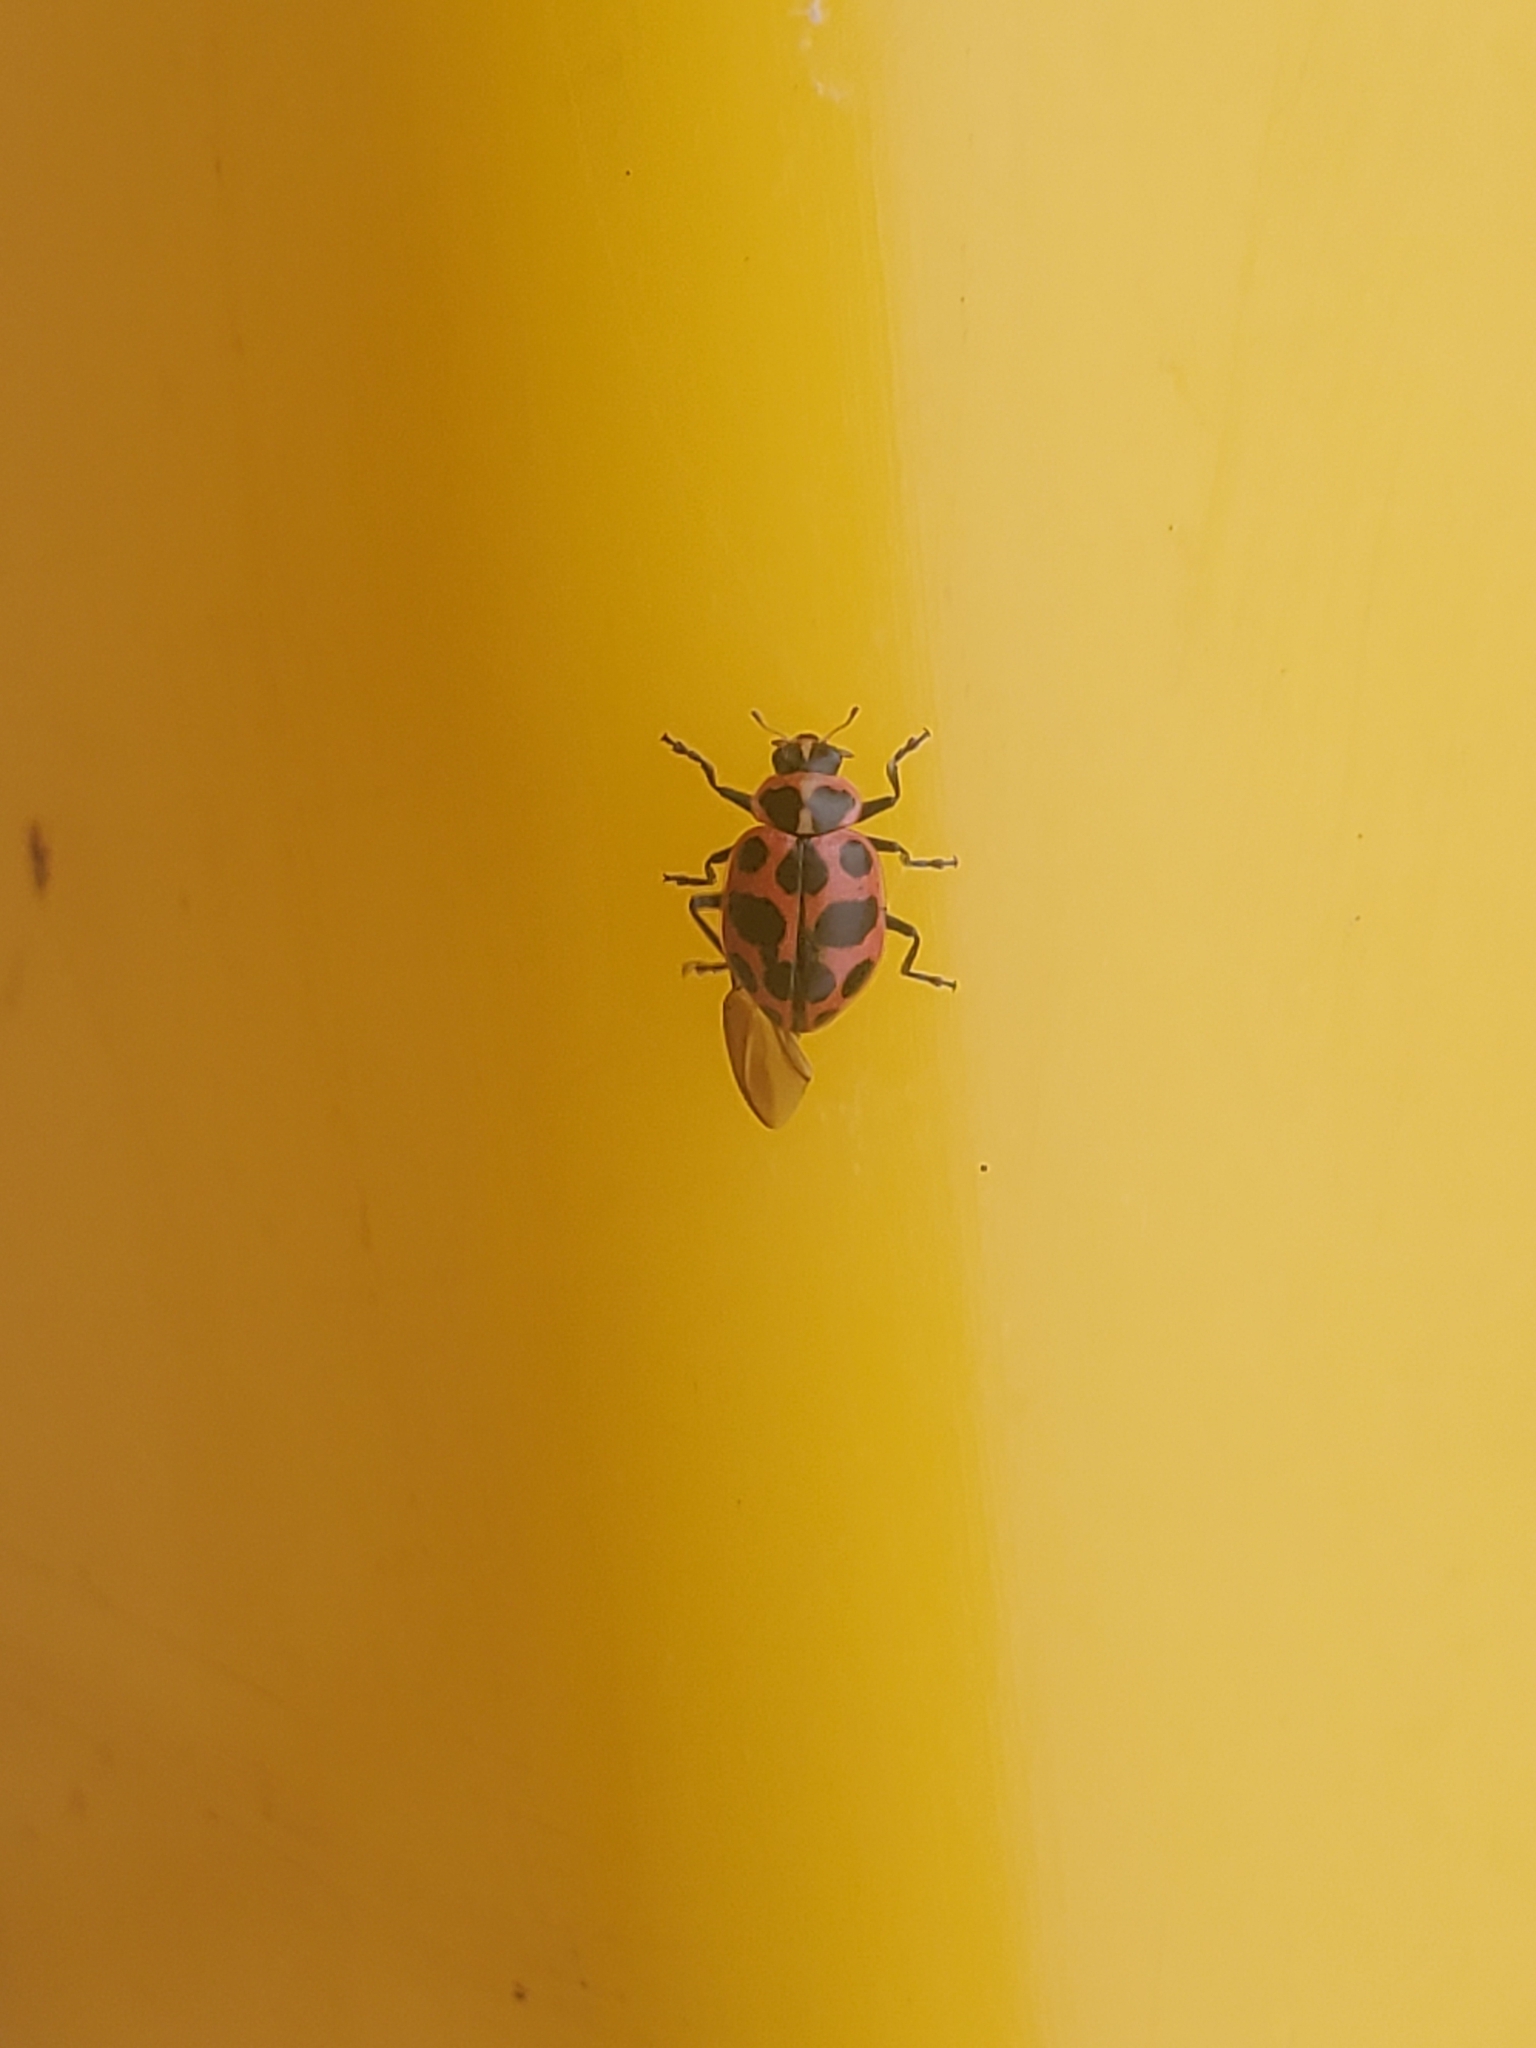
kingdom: Animalia
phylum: Arthropoda
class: Insecta
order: Coleoptera
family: Coccinellidae
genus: Coleomegilla
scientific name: Coleomegilla maculata
